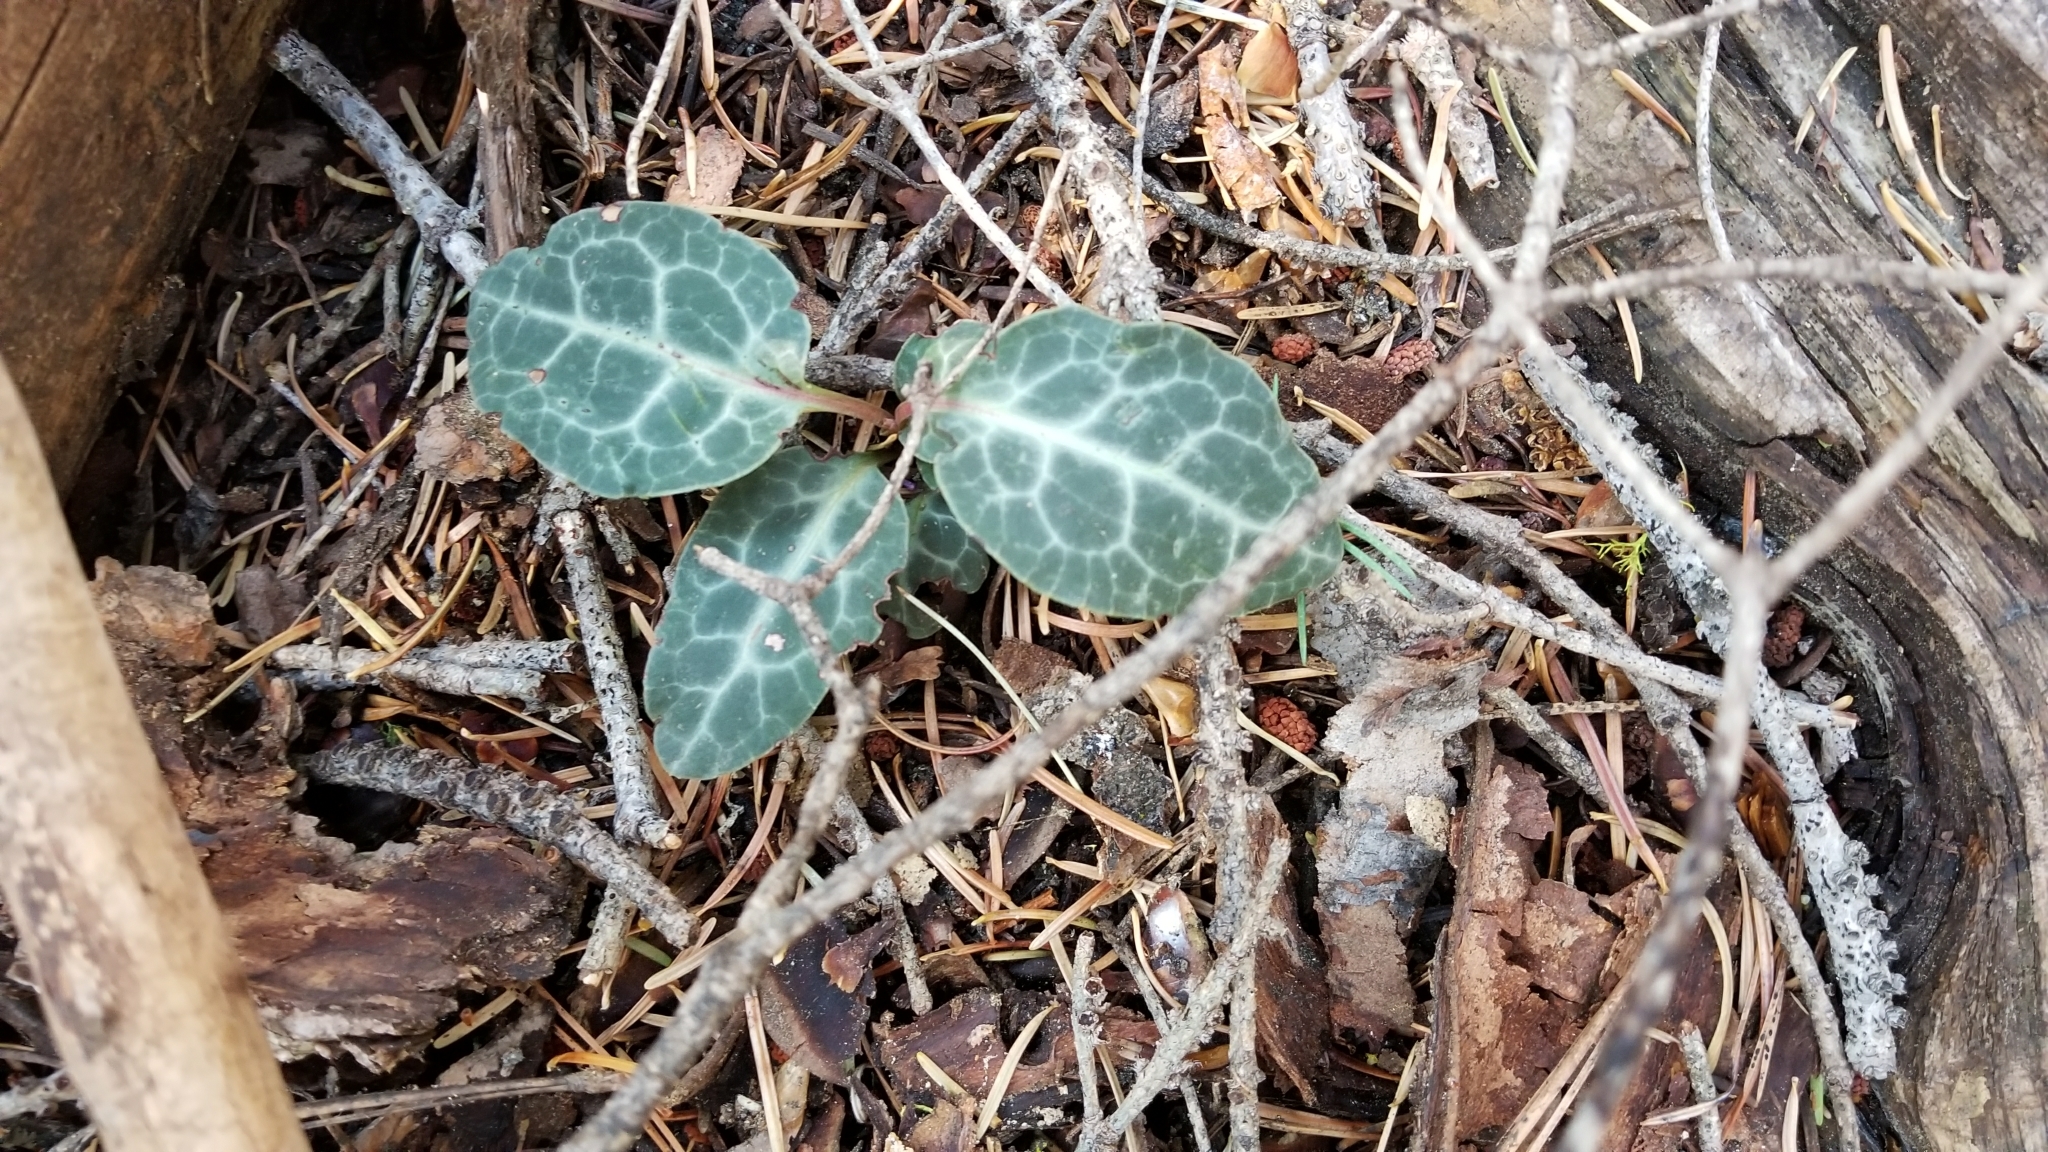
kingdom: Plantae
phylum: Tracheophyta
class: Magnoliopsida
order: Ericales
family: Ericaceae
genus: Pyrola
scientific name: Pyrola picta
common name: White-vein wintergreen
